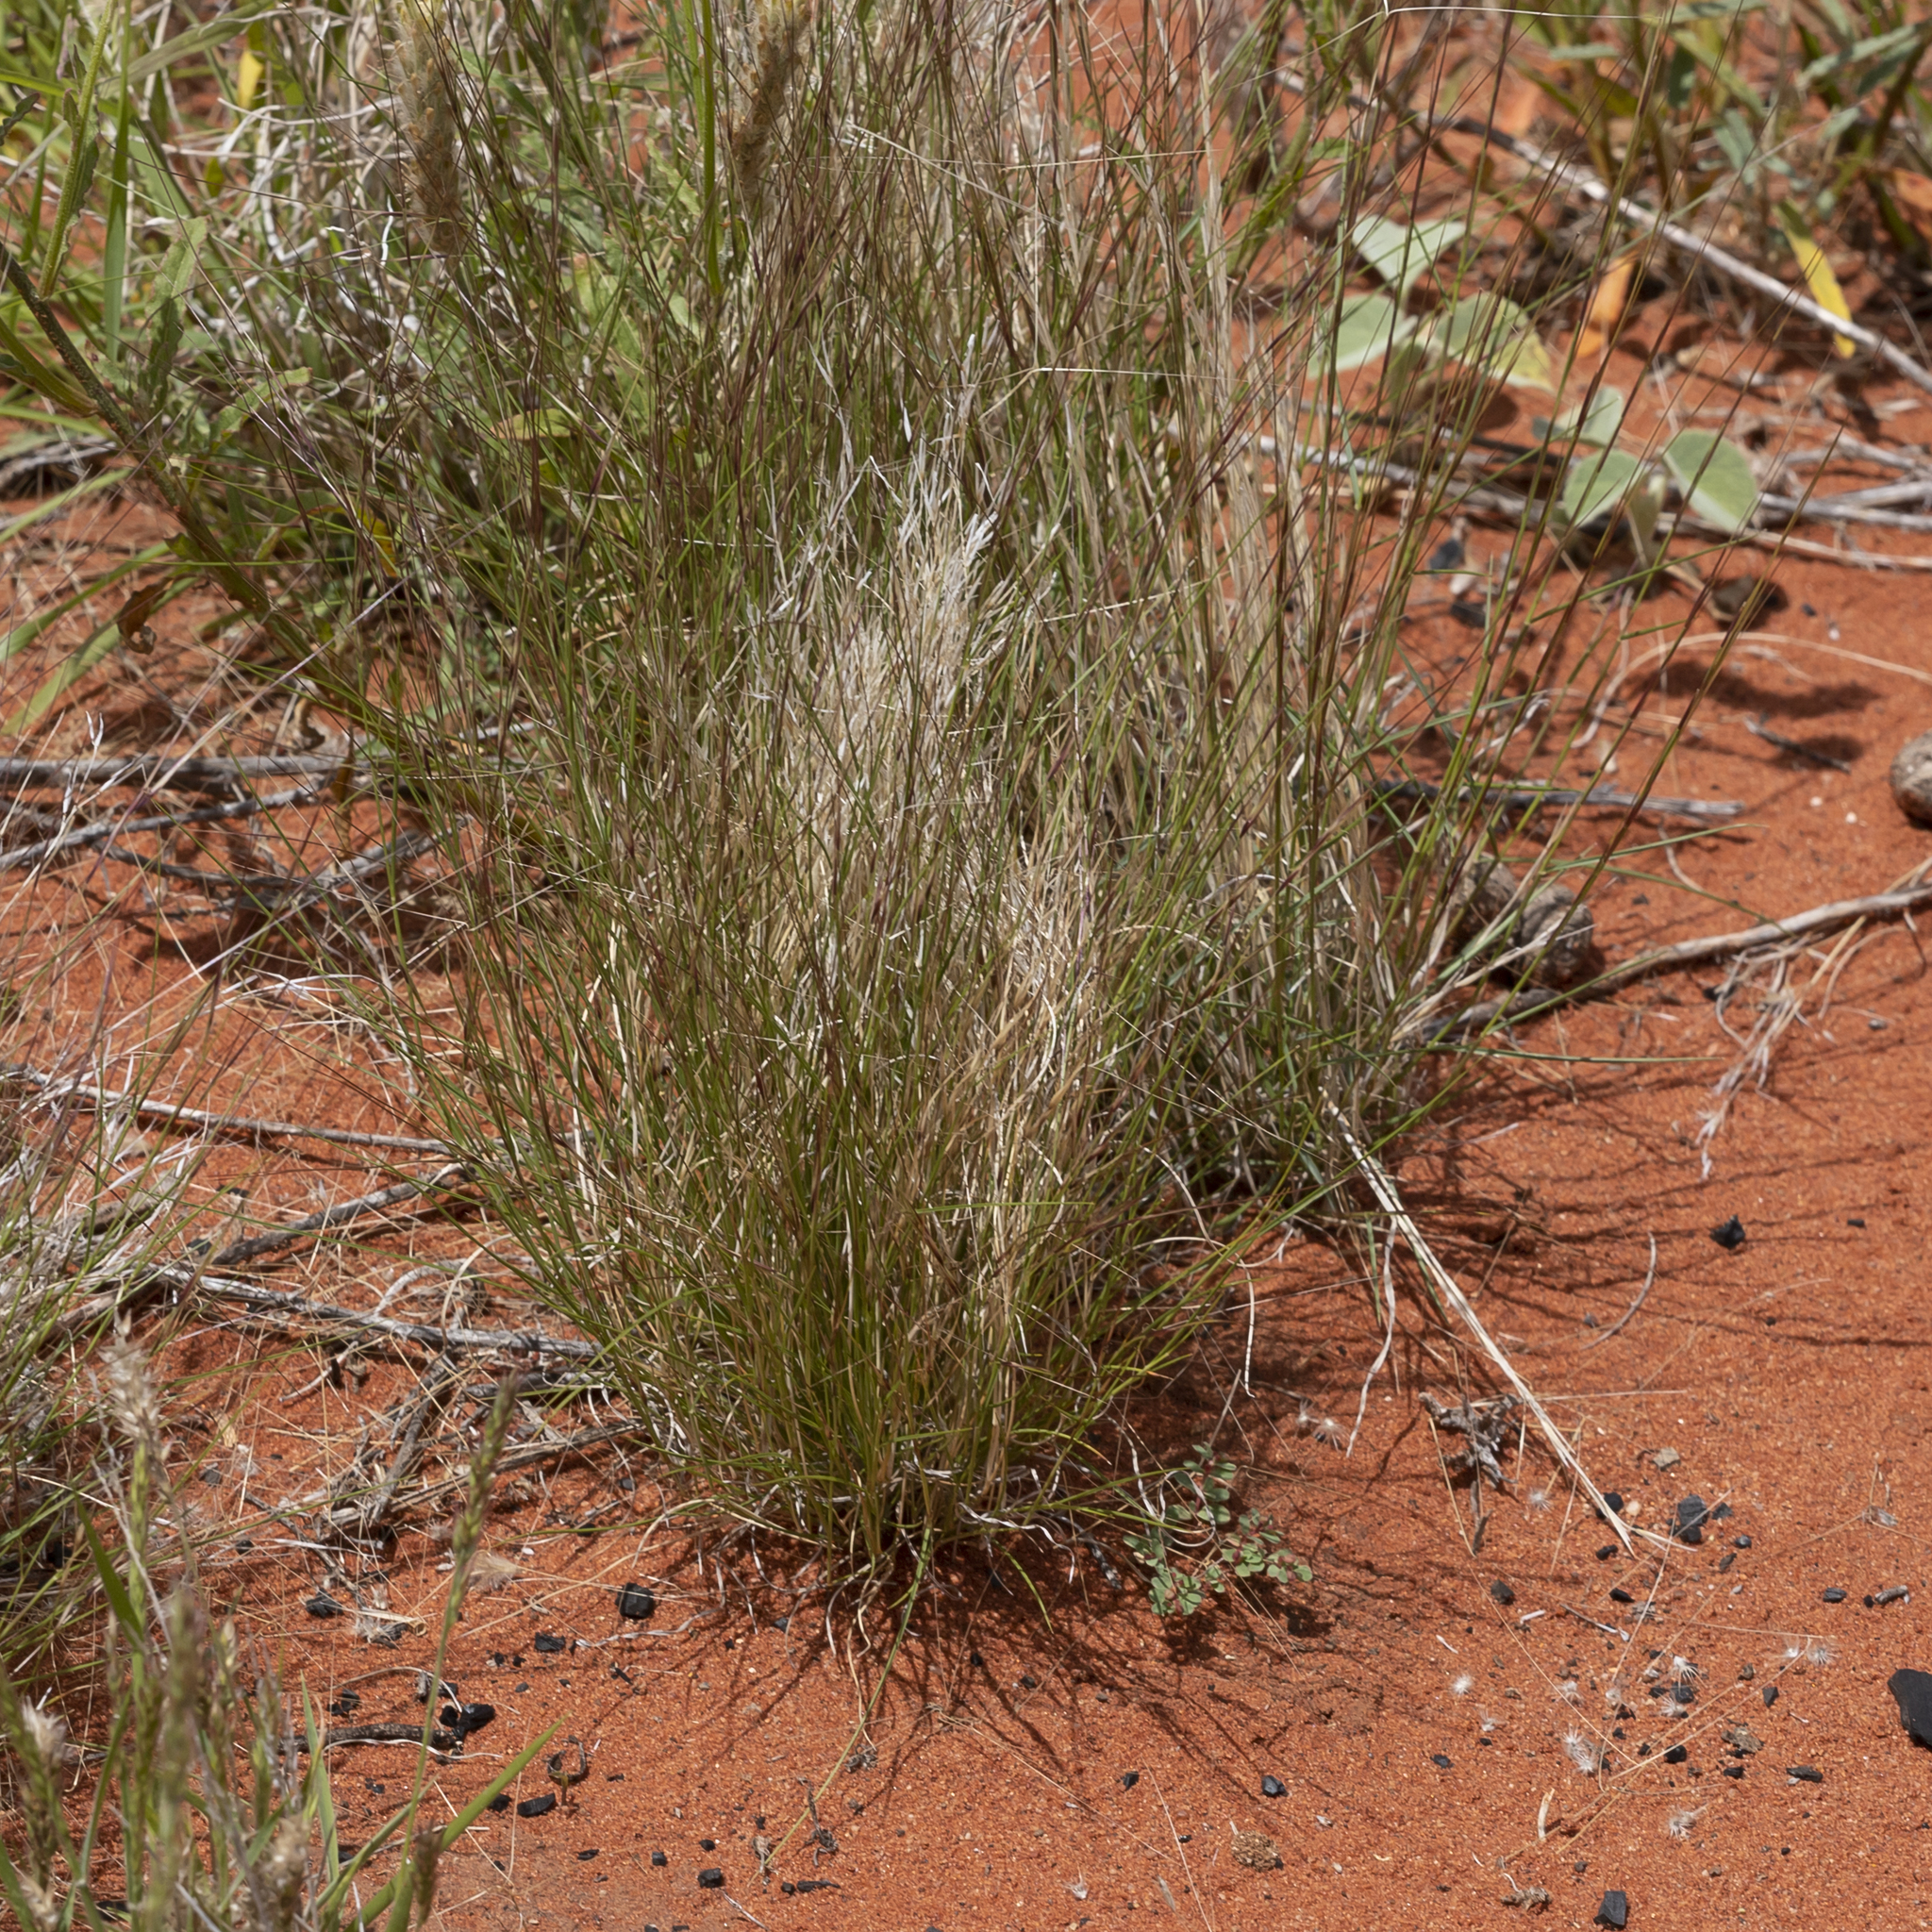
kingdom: Plantae
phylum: Tracheophyta
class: Liliopsida
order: Poales
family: Poaceae
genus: Aristida
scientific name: Aristida contorta
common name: Bunch kerosene grass
